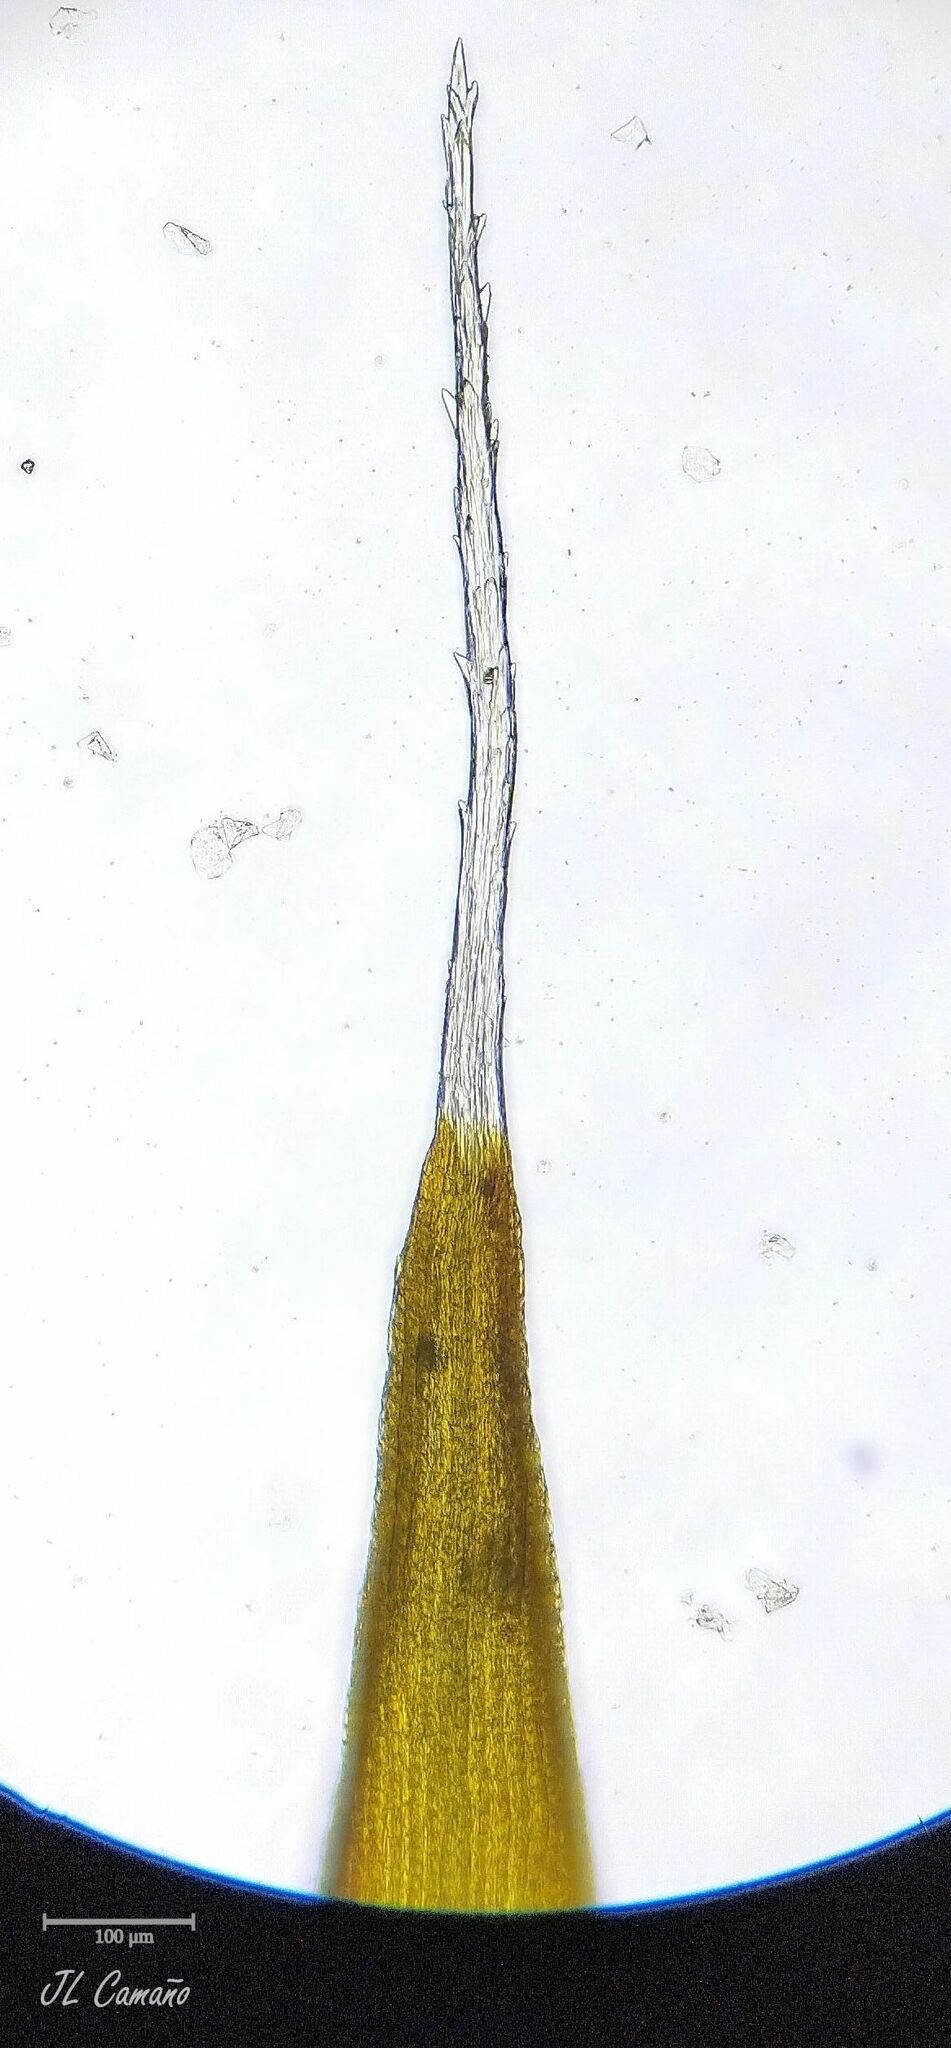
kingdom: Plantae
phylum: Bryophyta
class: Bryopsida
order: Dicranales
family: Leucobryaceae
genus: Campylopus
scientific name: Campylopus introflexus
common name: Heath star moss
